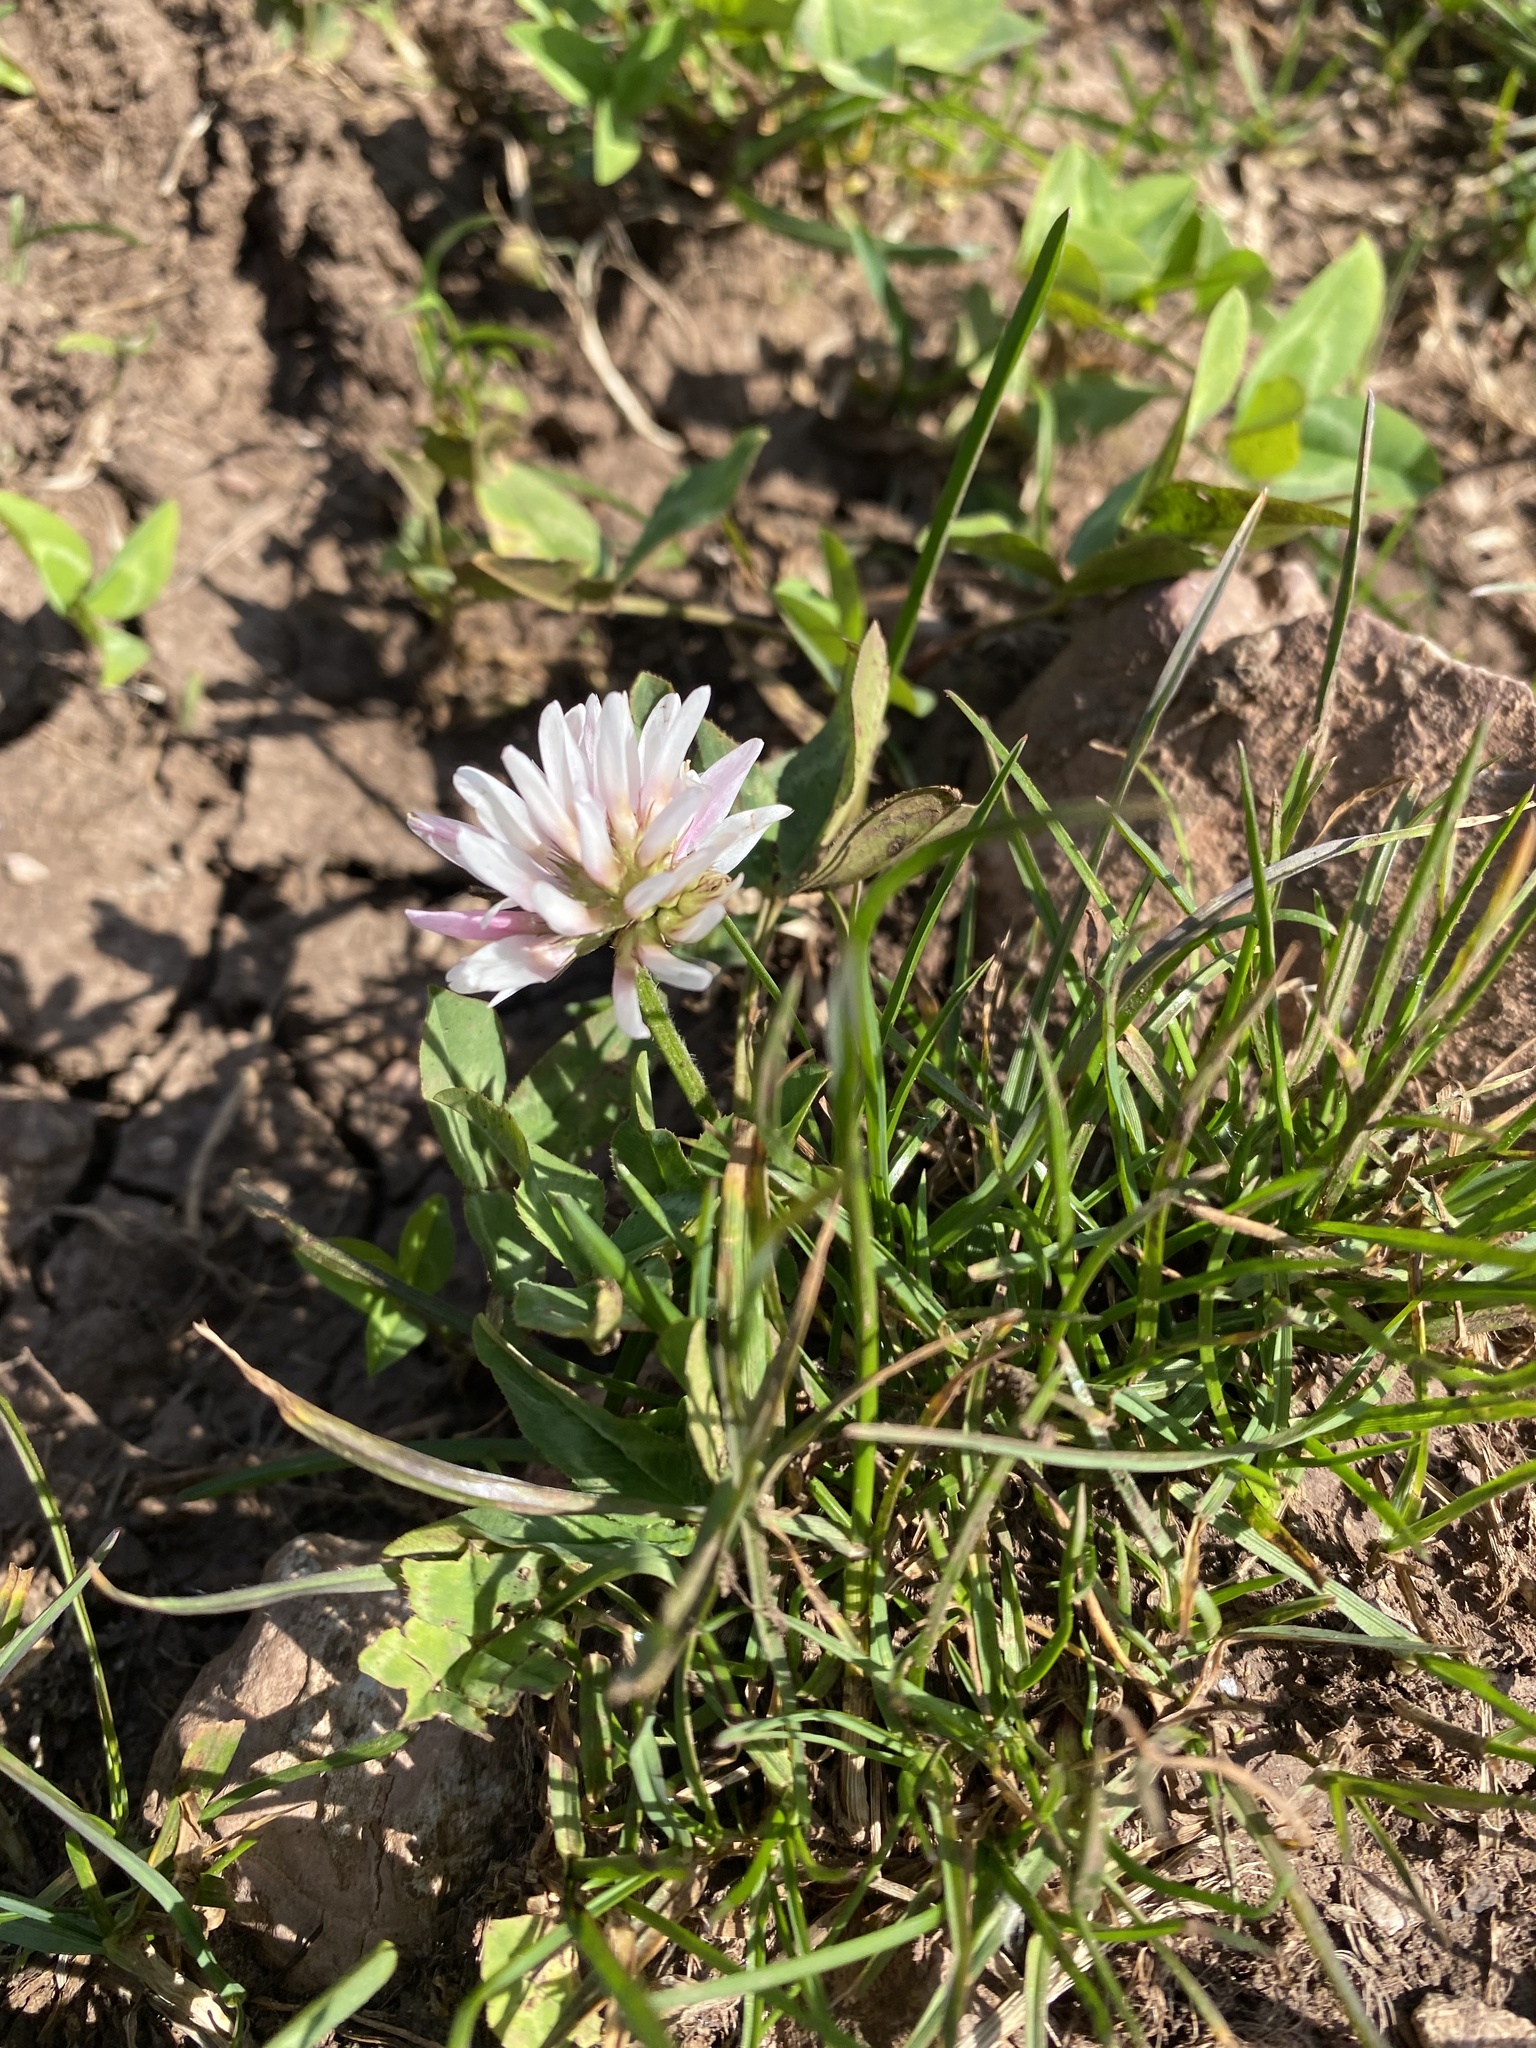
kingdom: Plantae
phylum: Tracheophyta
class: Magnoliopsida
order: Fabales
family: Fabaceae
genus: Trifolium
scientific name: Trifolium ambiguum
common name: Kura clover
